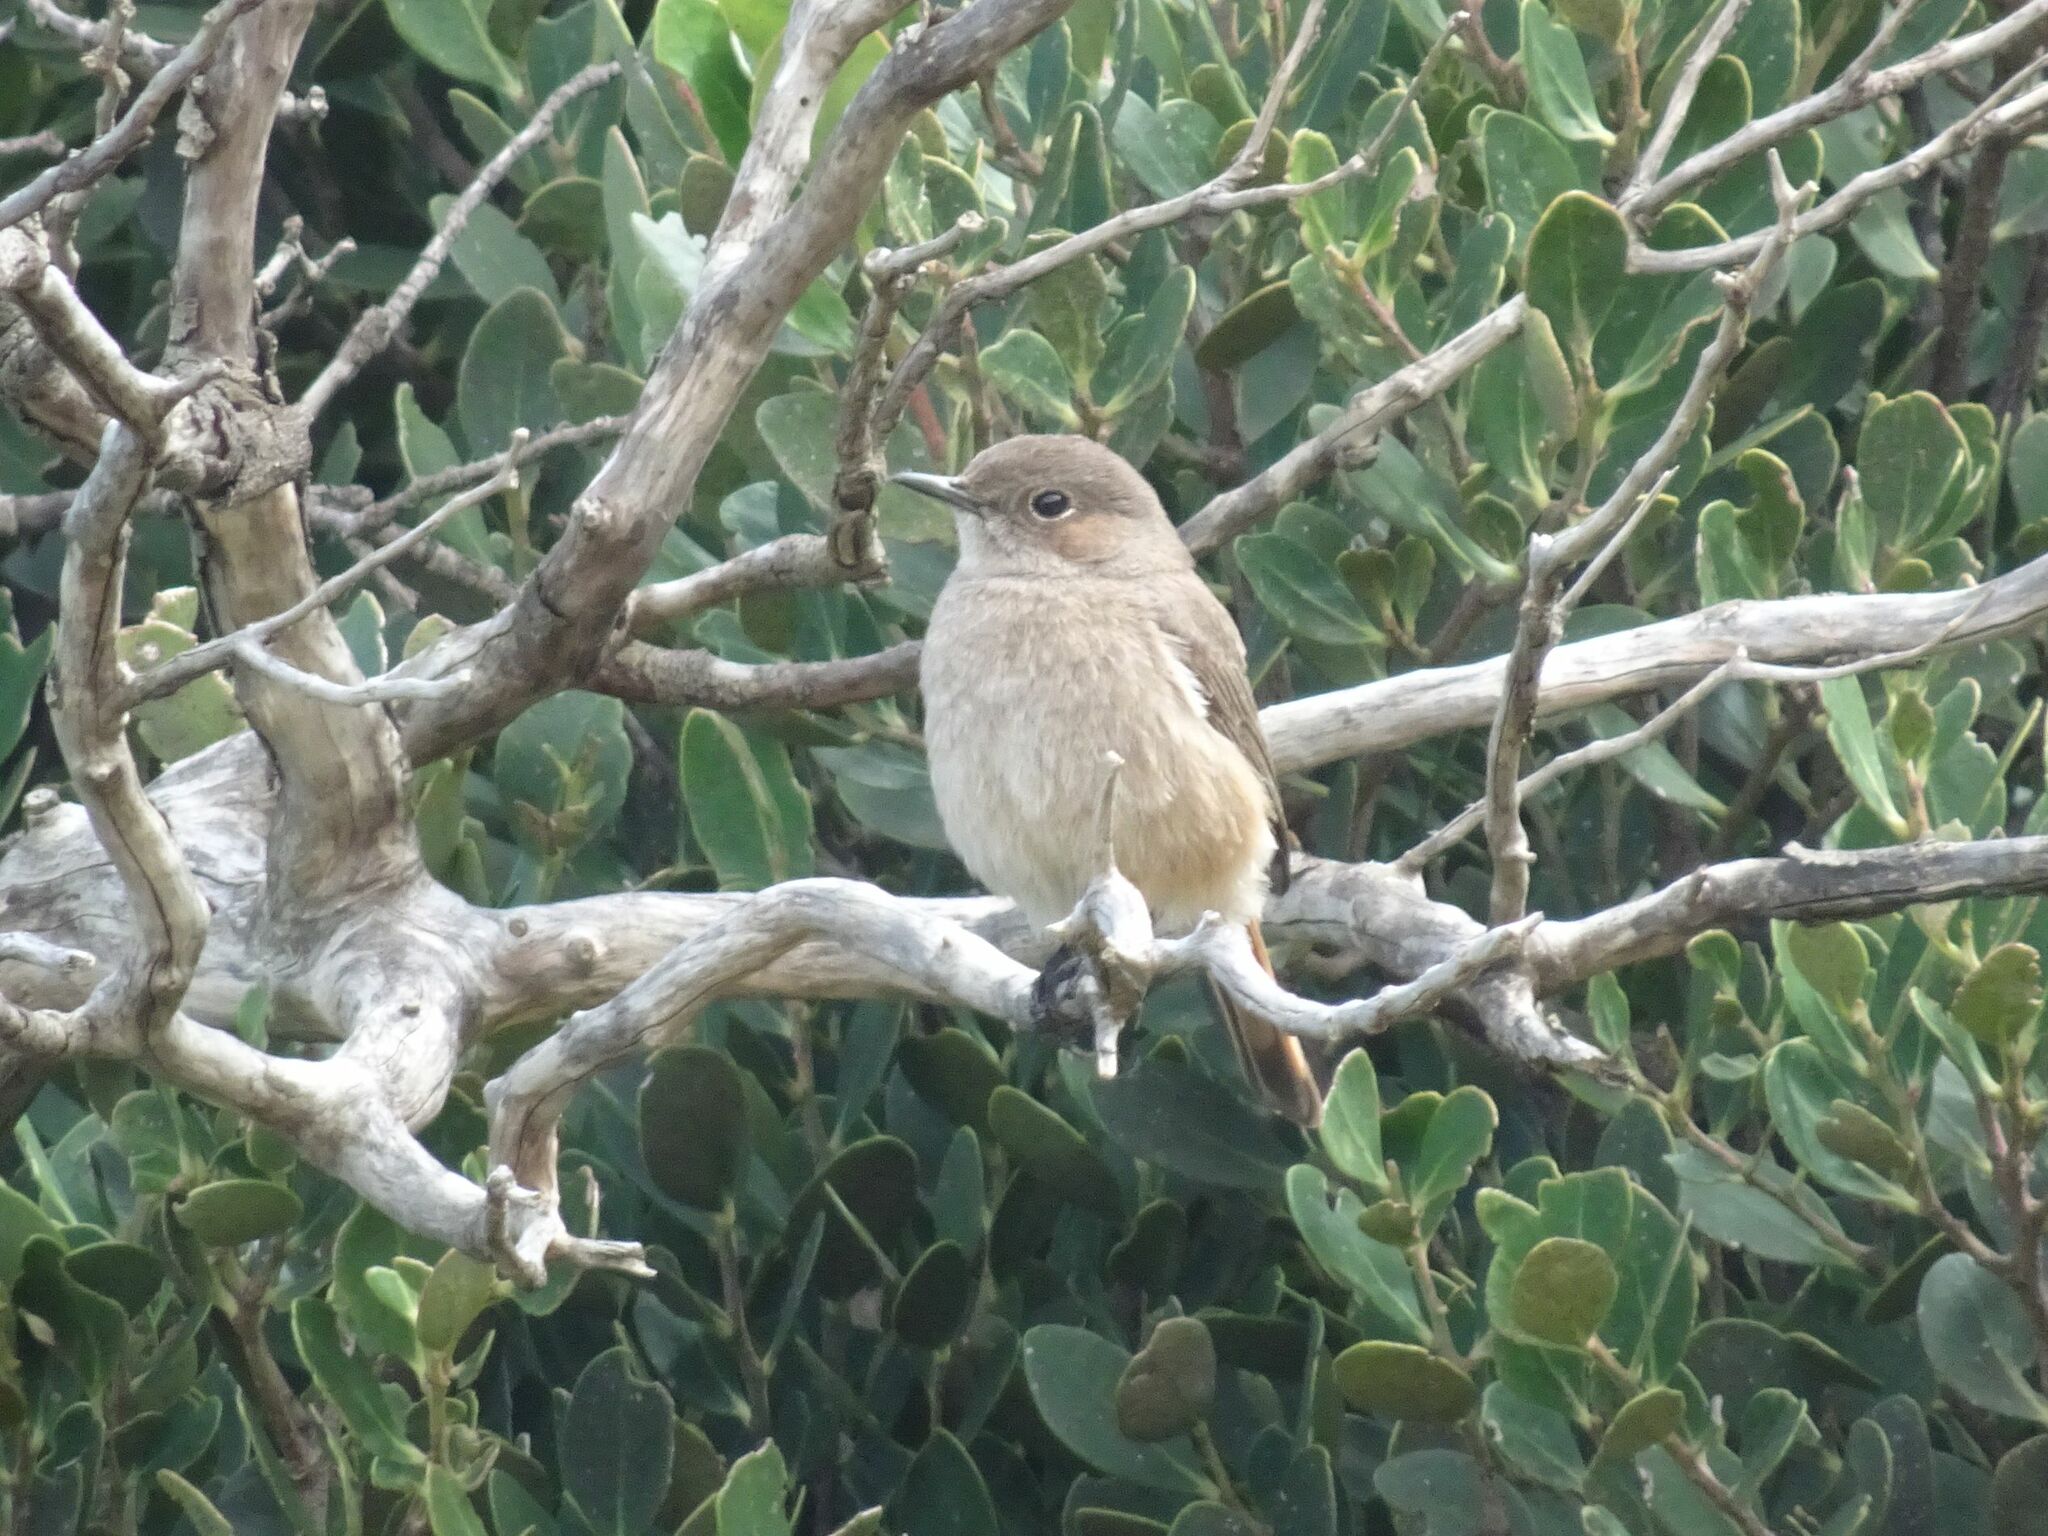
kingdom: Animalia
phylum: Chordata
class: Aves
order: Passeriformes
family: Muscicapidae
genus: Oenanthe
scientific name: Oenanthe familiaris
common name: Familiar chat
